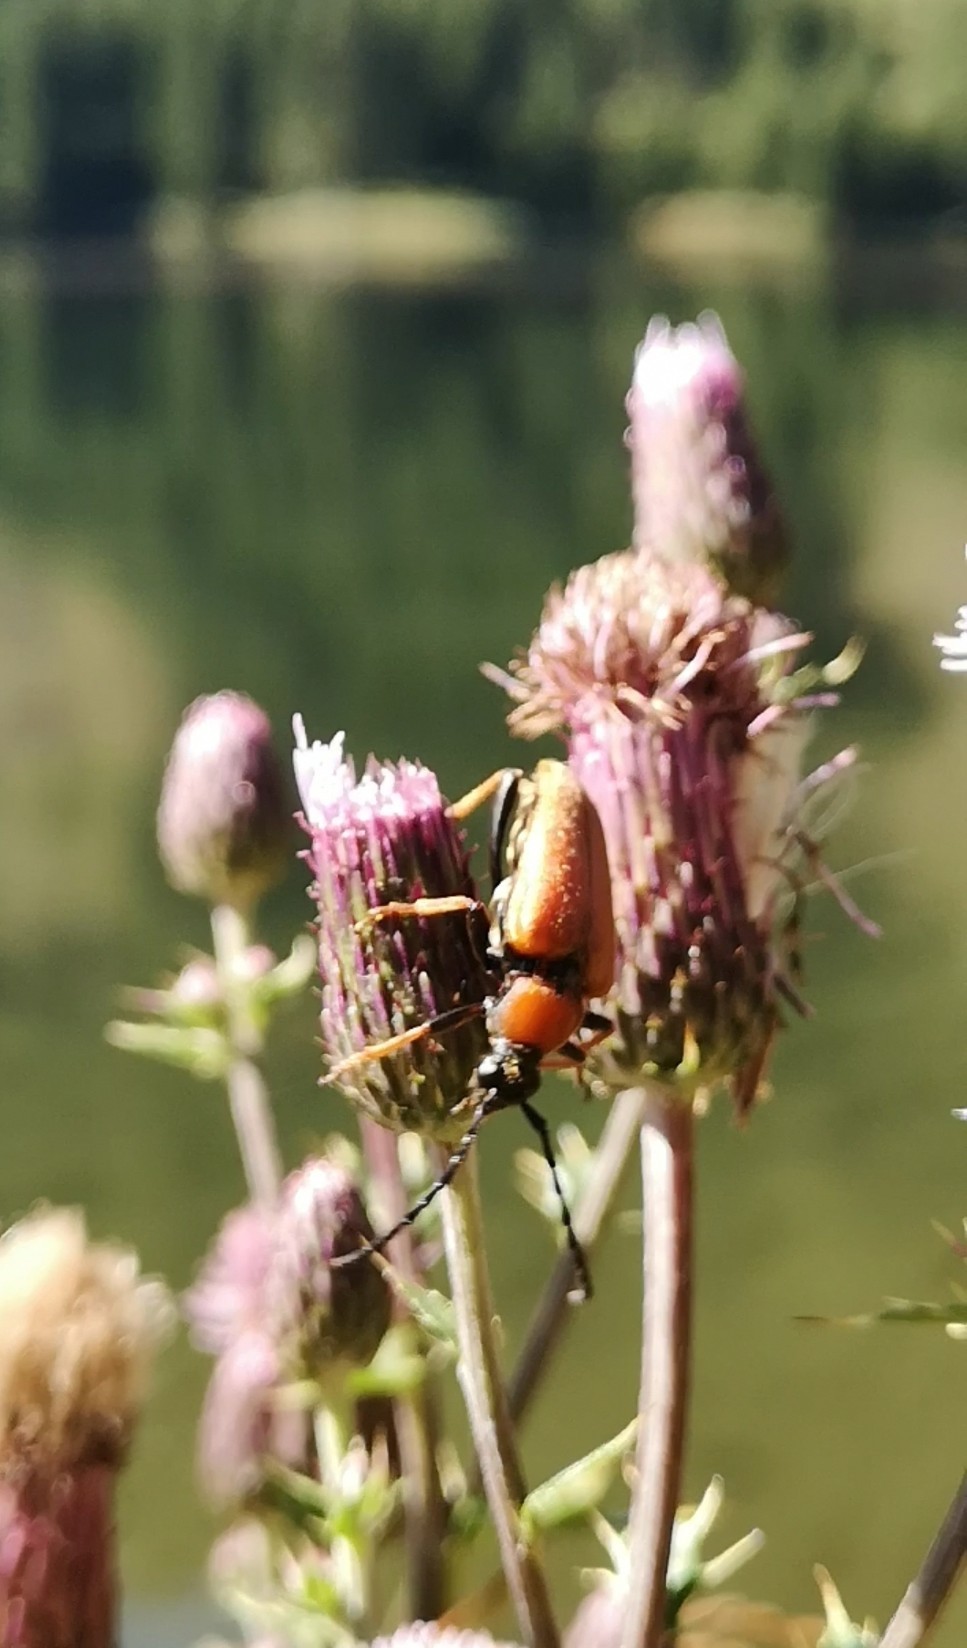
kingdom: Animalia
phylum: Arthropoda
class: Insecta
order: Coleoptera
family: Cerambycidae
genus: Stictoleptura
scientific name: Stictoleptura rubra
